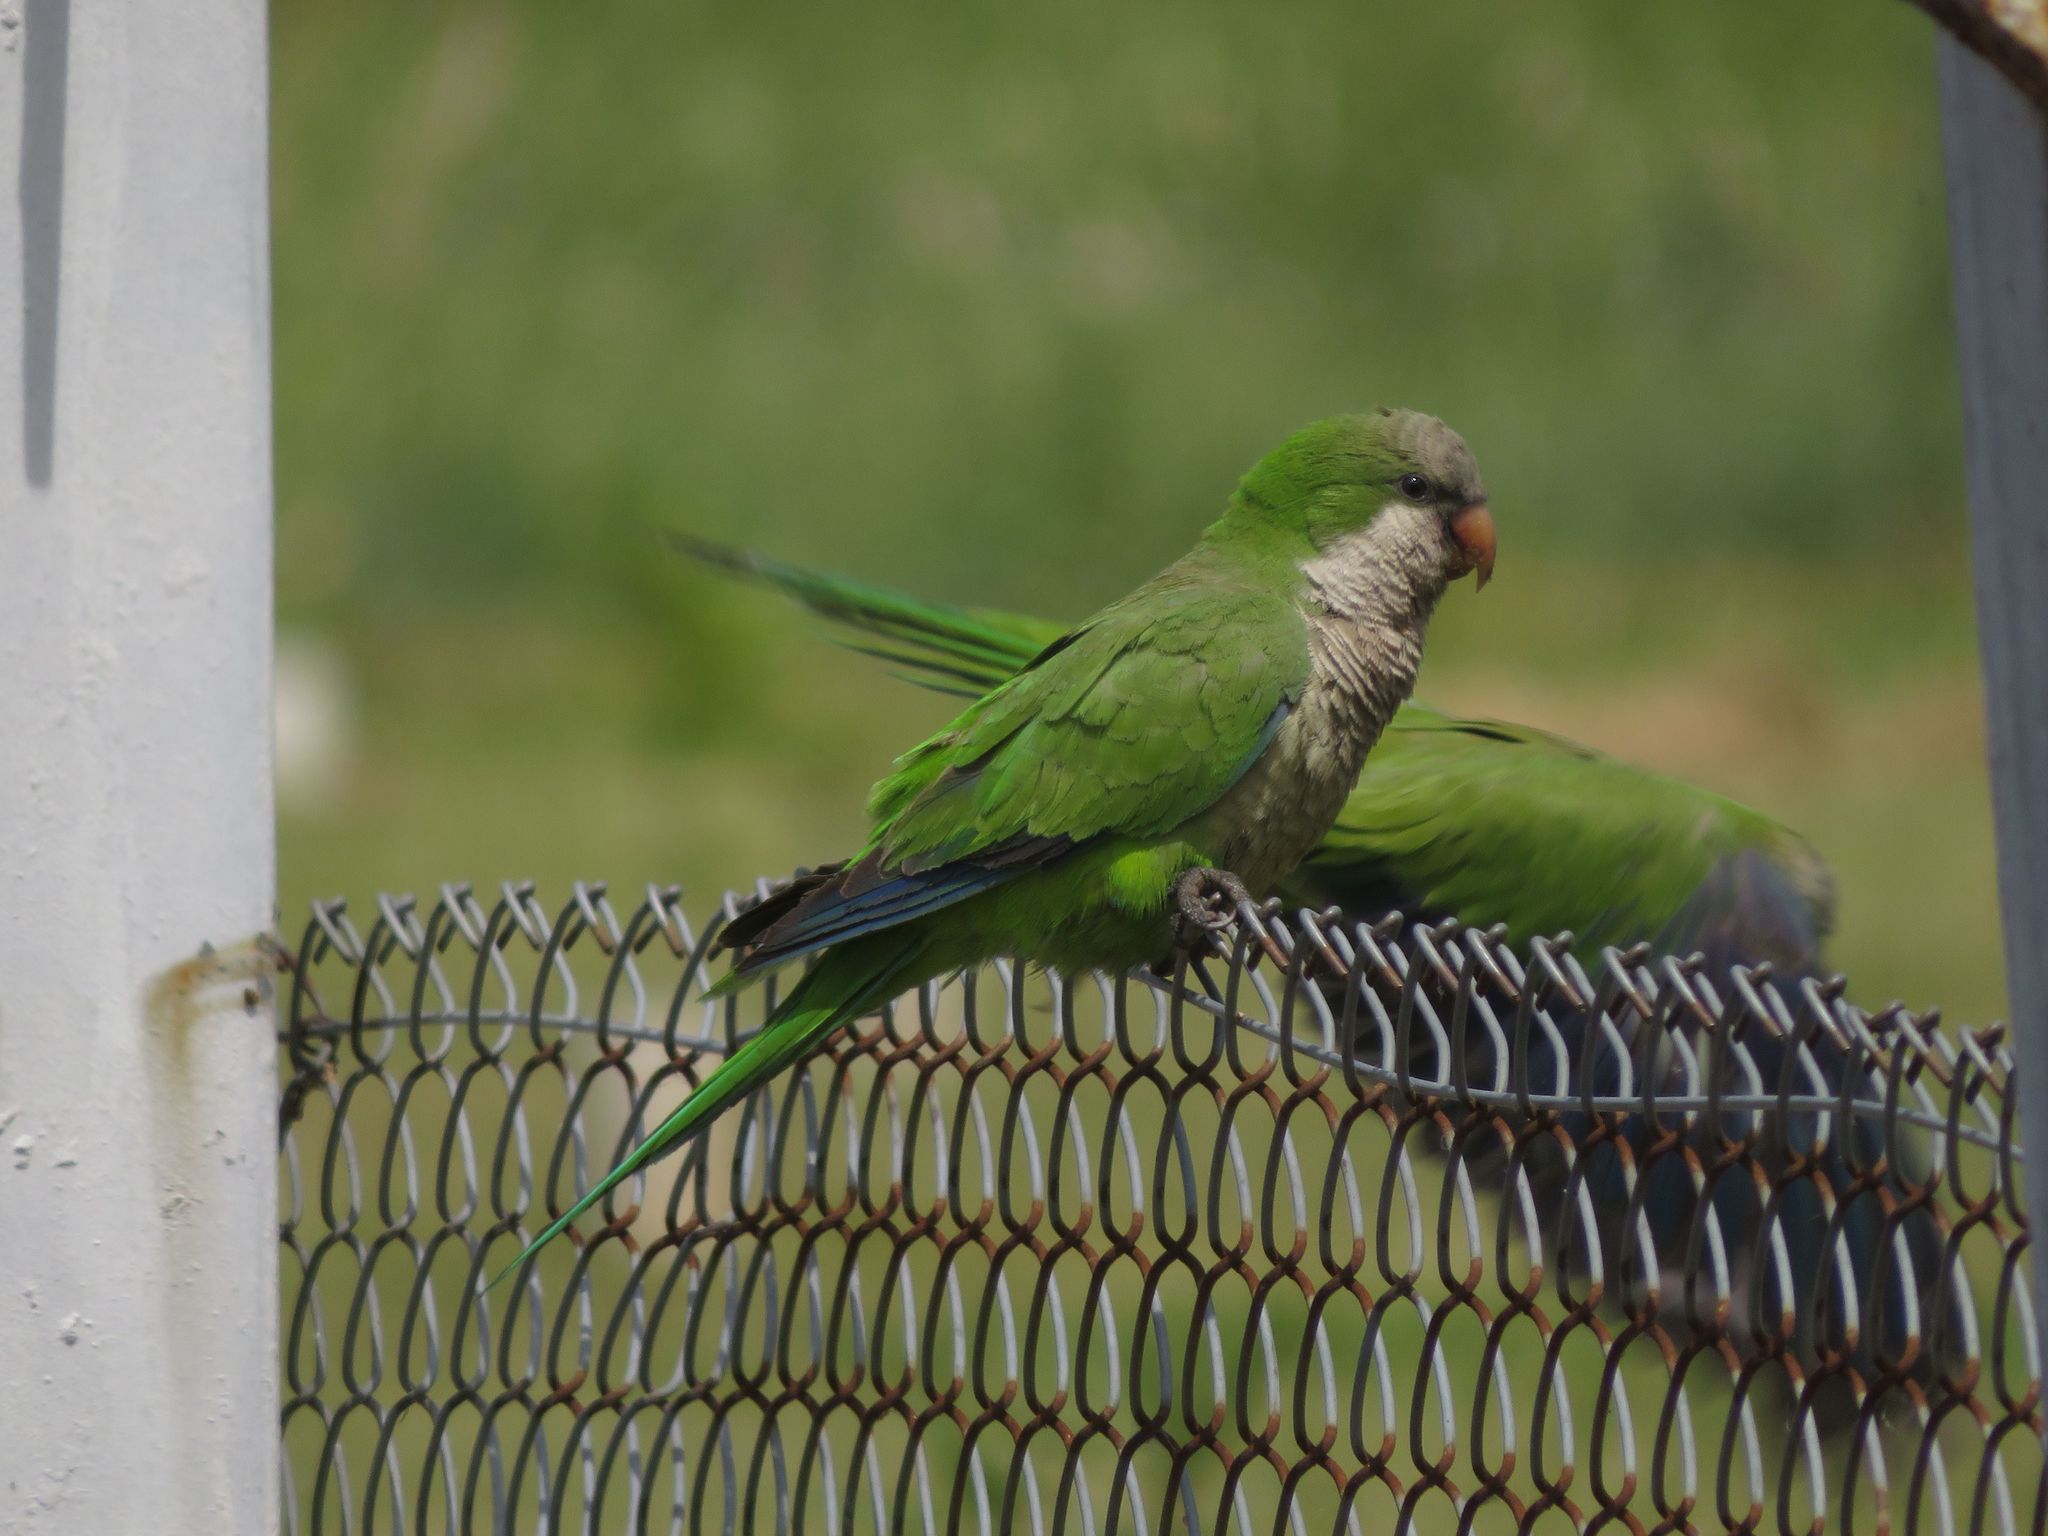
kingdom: Animalia
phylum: Chordata
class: Aves
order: Psittaciformes
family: Psittacidae
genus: Myiopsitta
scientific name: Myiopsitta monachus
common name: Monk parakeet
